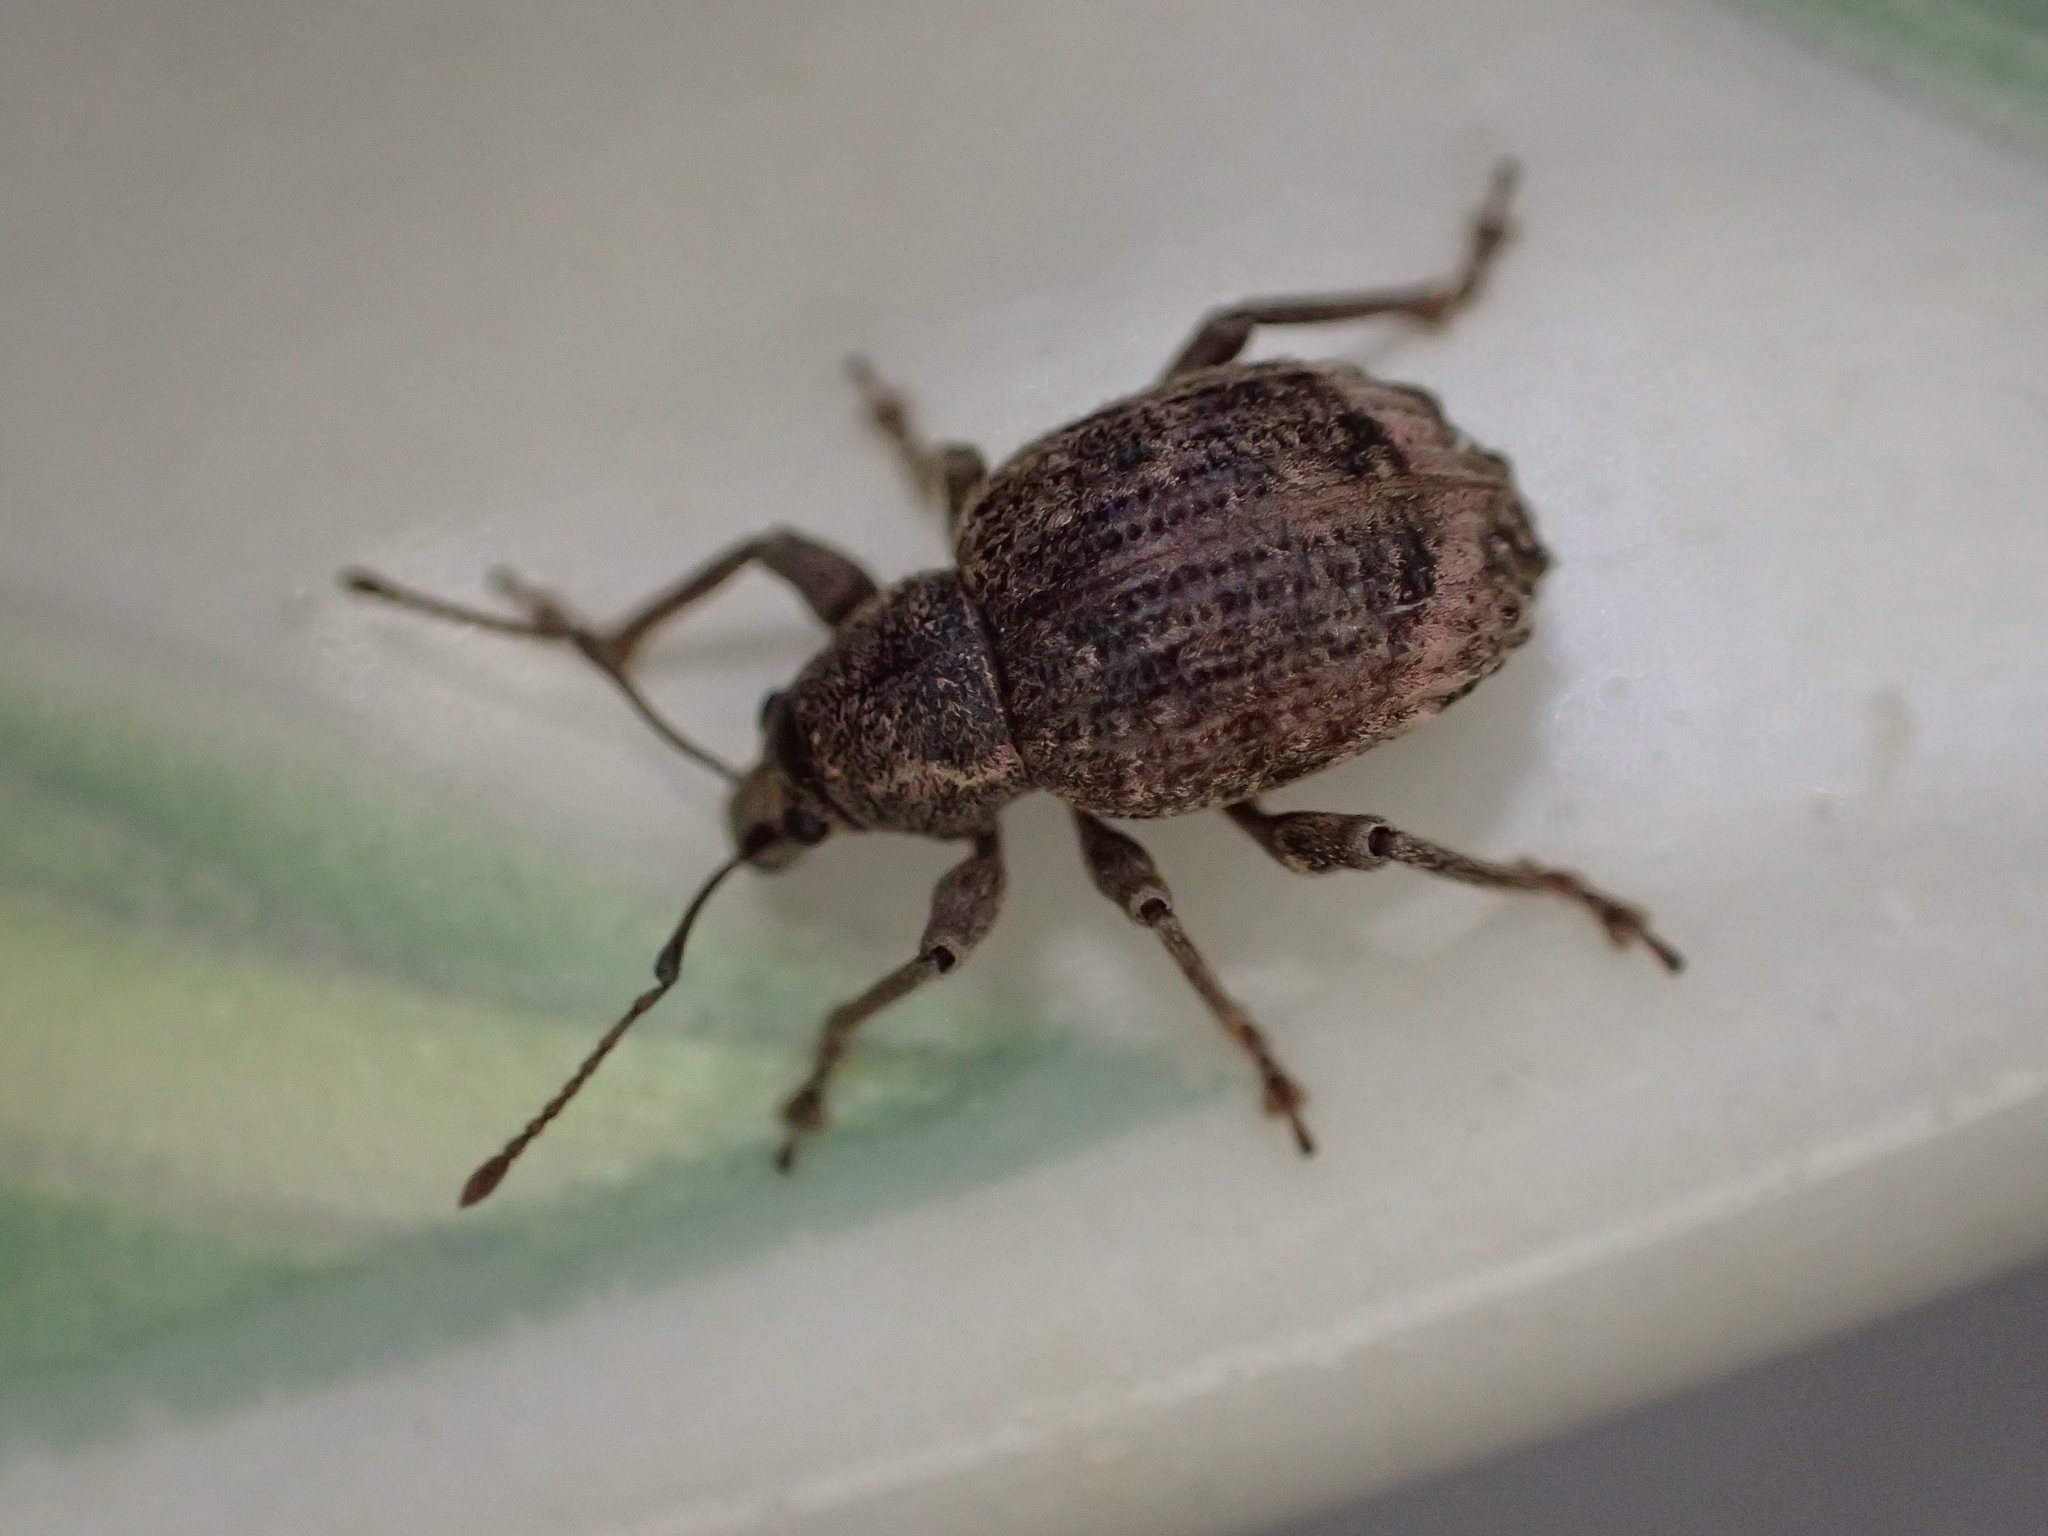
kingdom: Animalia
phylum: Arthropoda
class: Insecta
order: Coleoptera
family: Curculionidae
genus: Phlyctinus
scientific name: Phlyctinus callosus
